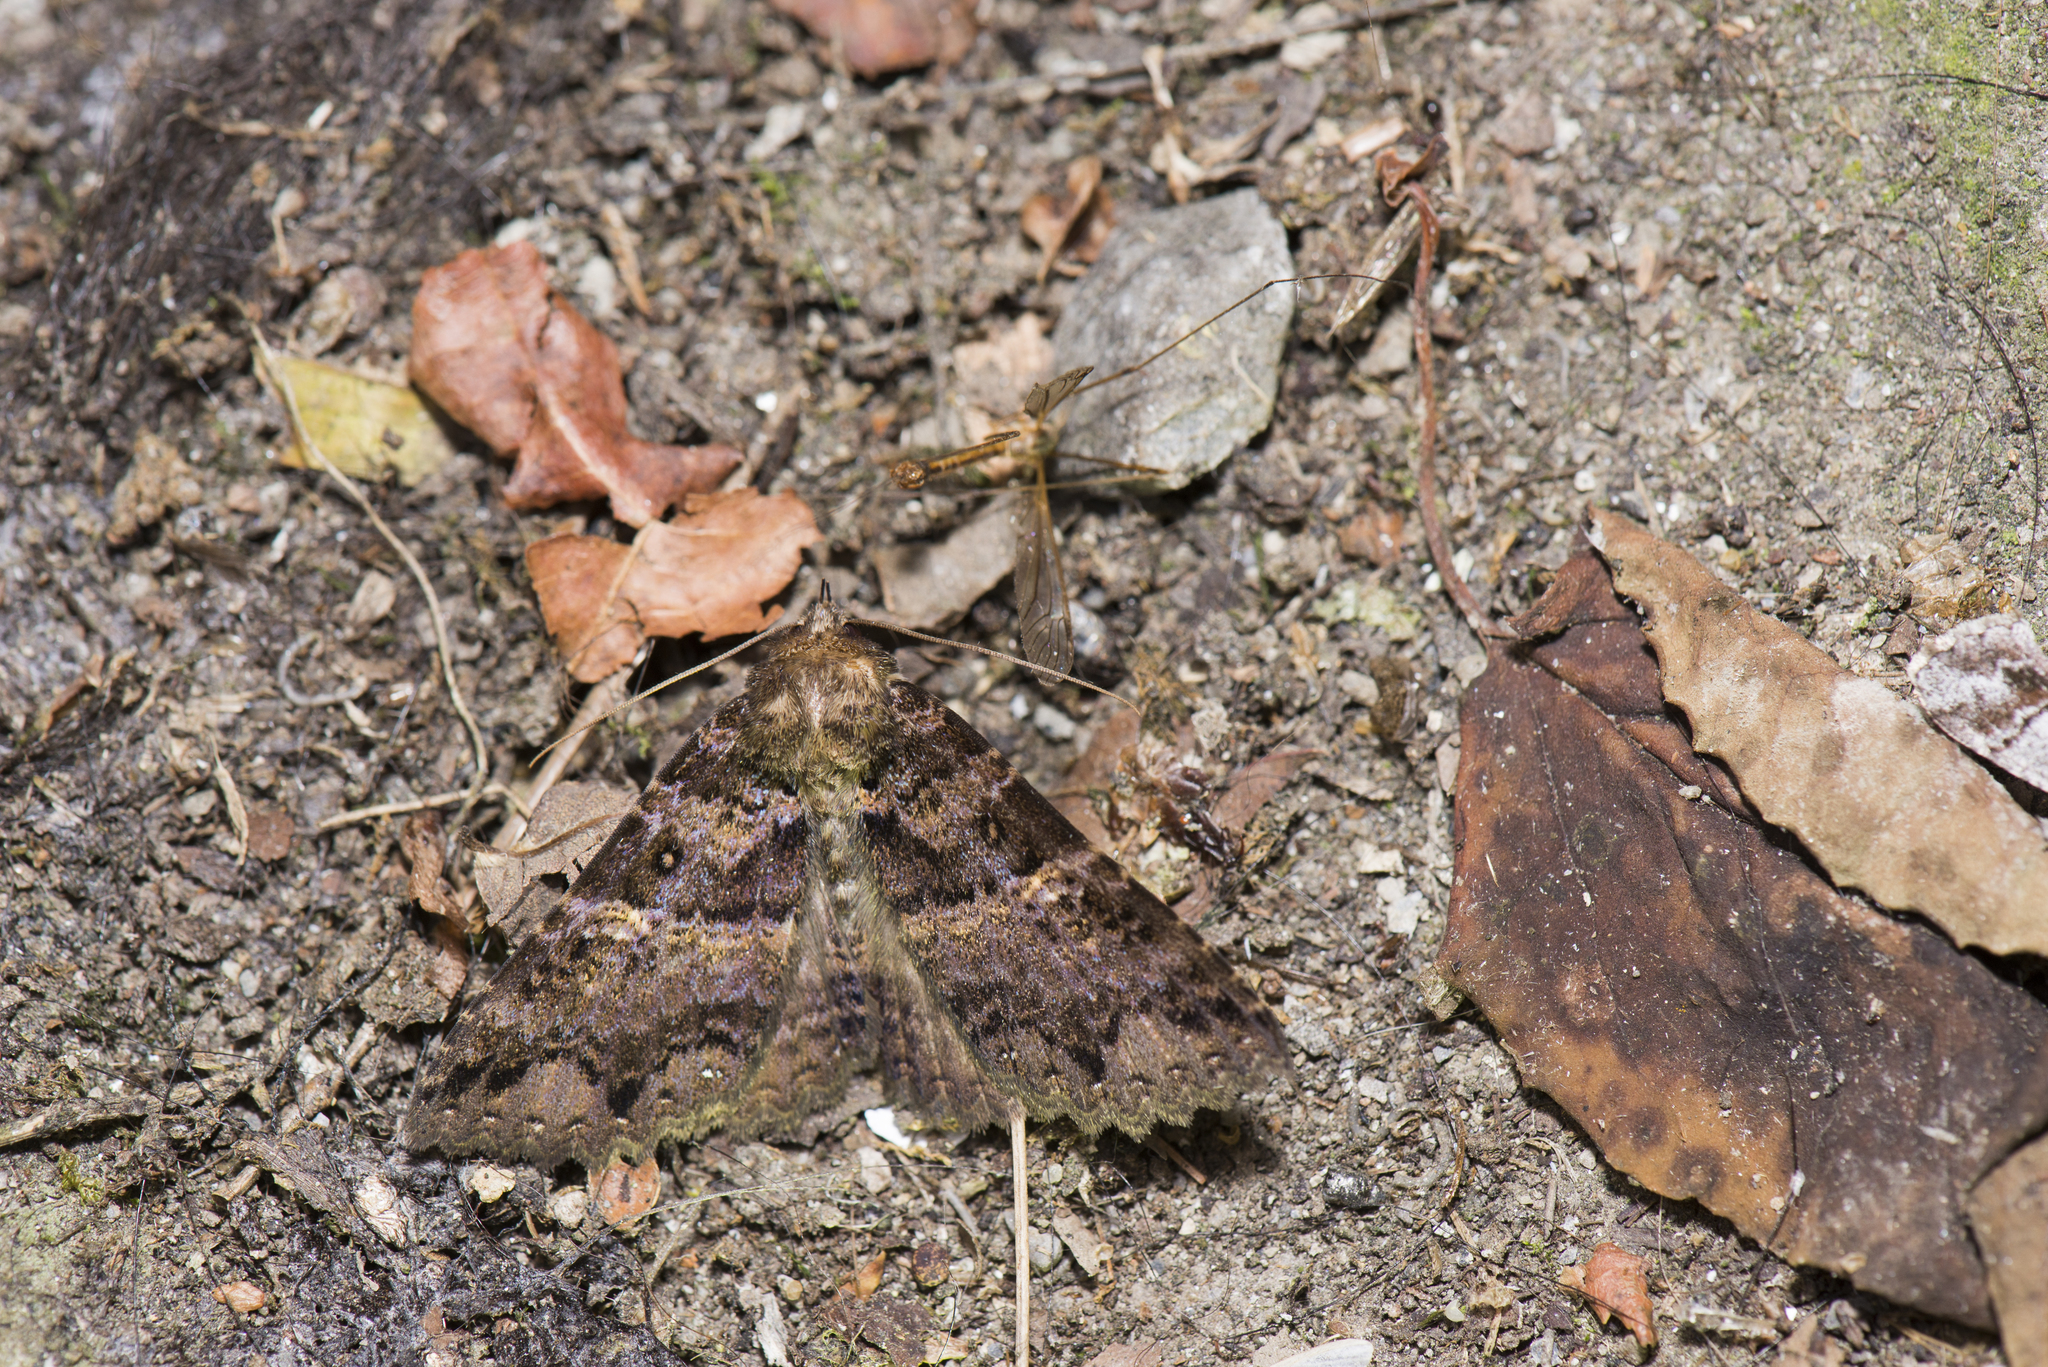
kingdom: Animalia
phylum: Arthropoda
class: Insecta
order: Lepidoptera
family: Erebidae
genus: Sypna
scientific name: Sypna diversa
